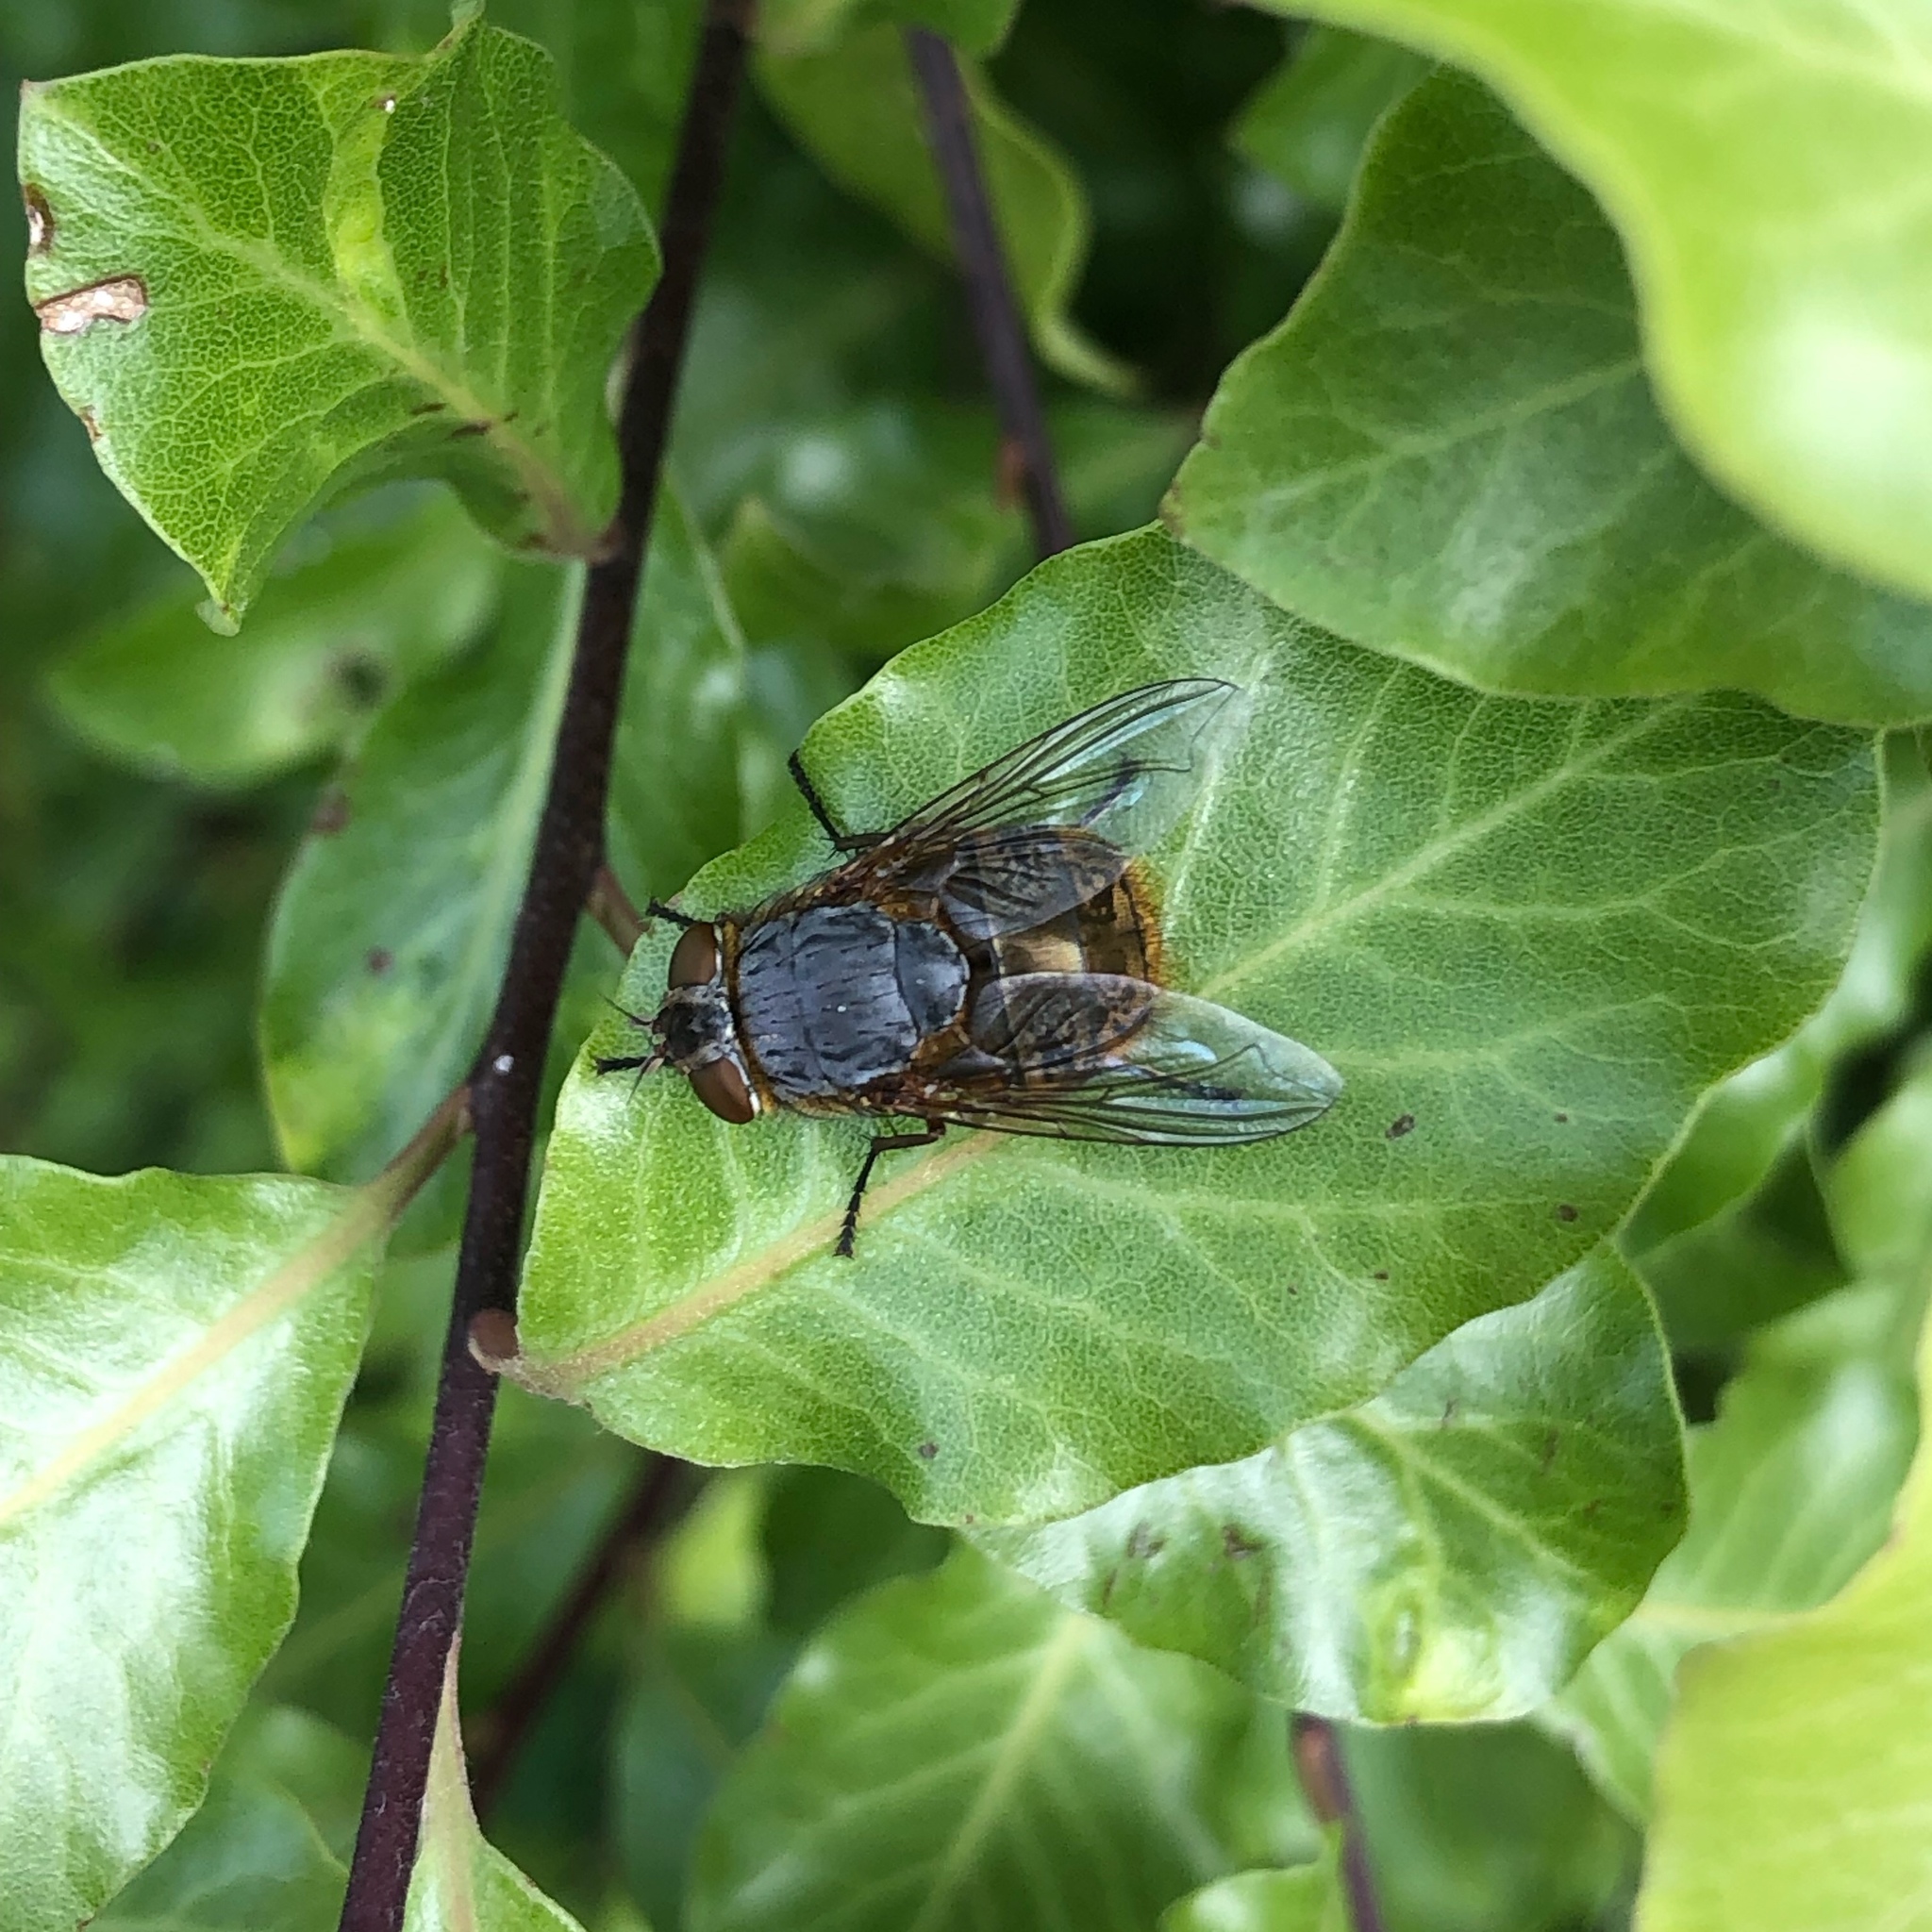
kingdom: Animalia
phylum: Arthropoda
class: Insecta
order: Diptera
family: Calliphoridae
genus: Calliphora
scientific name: Calliphora stygia
